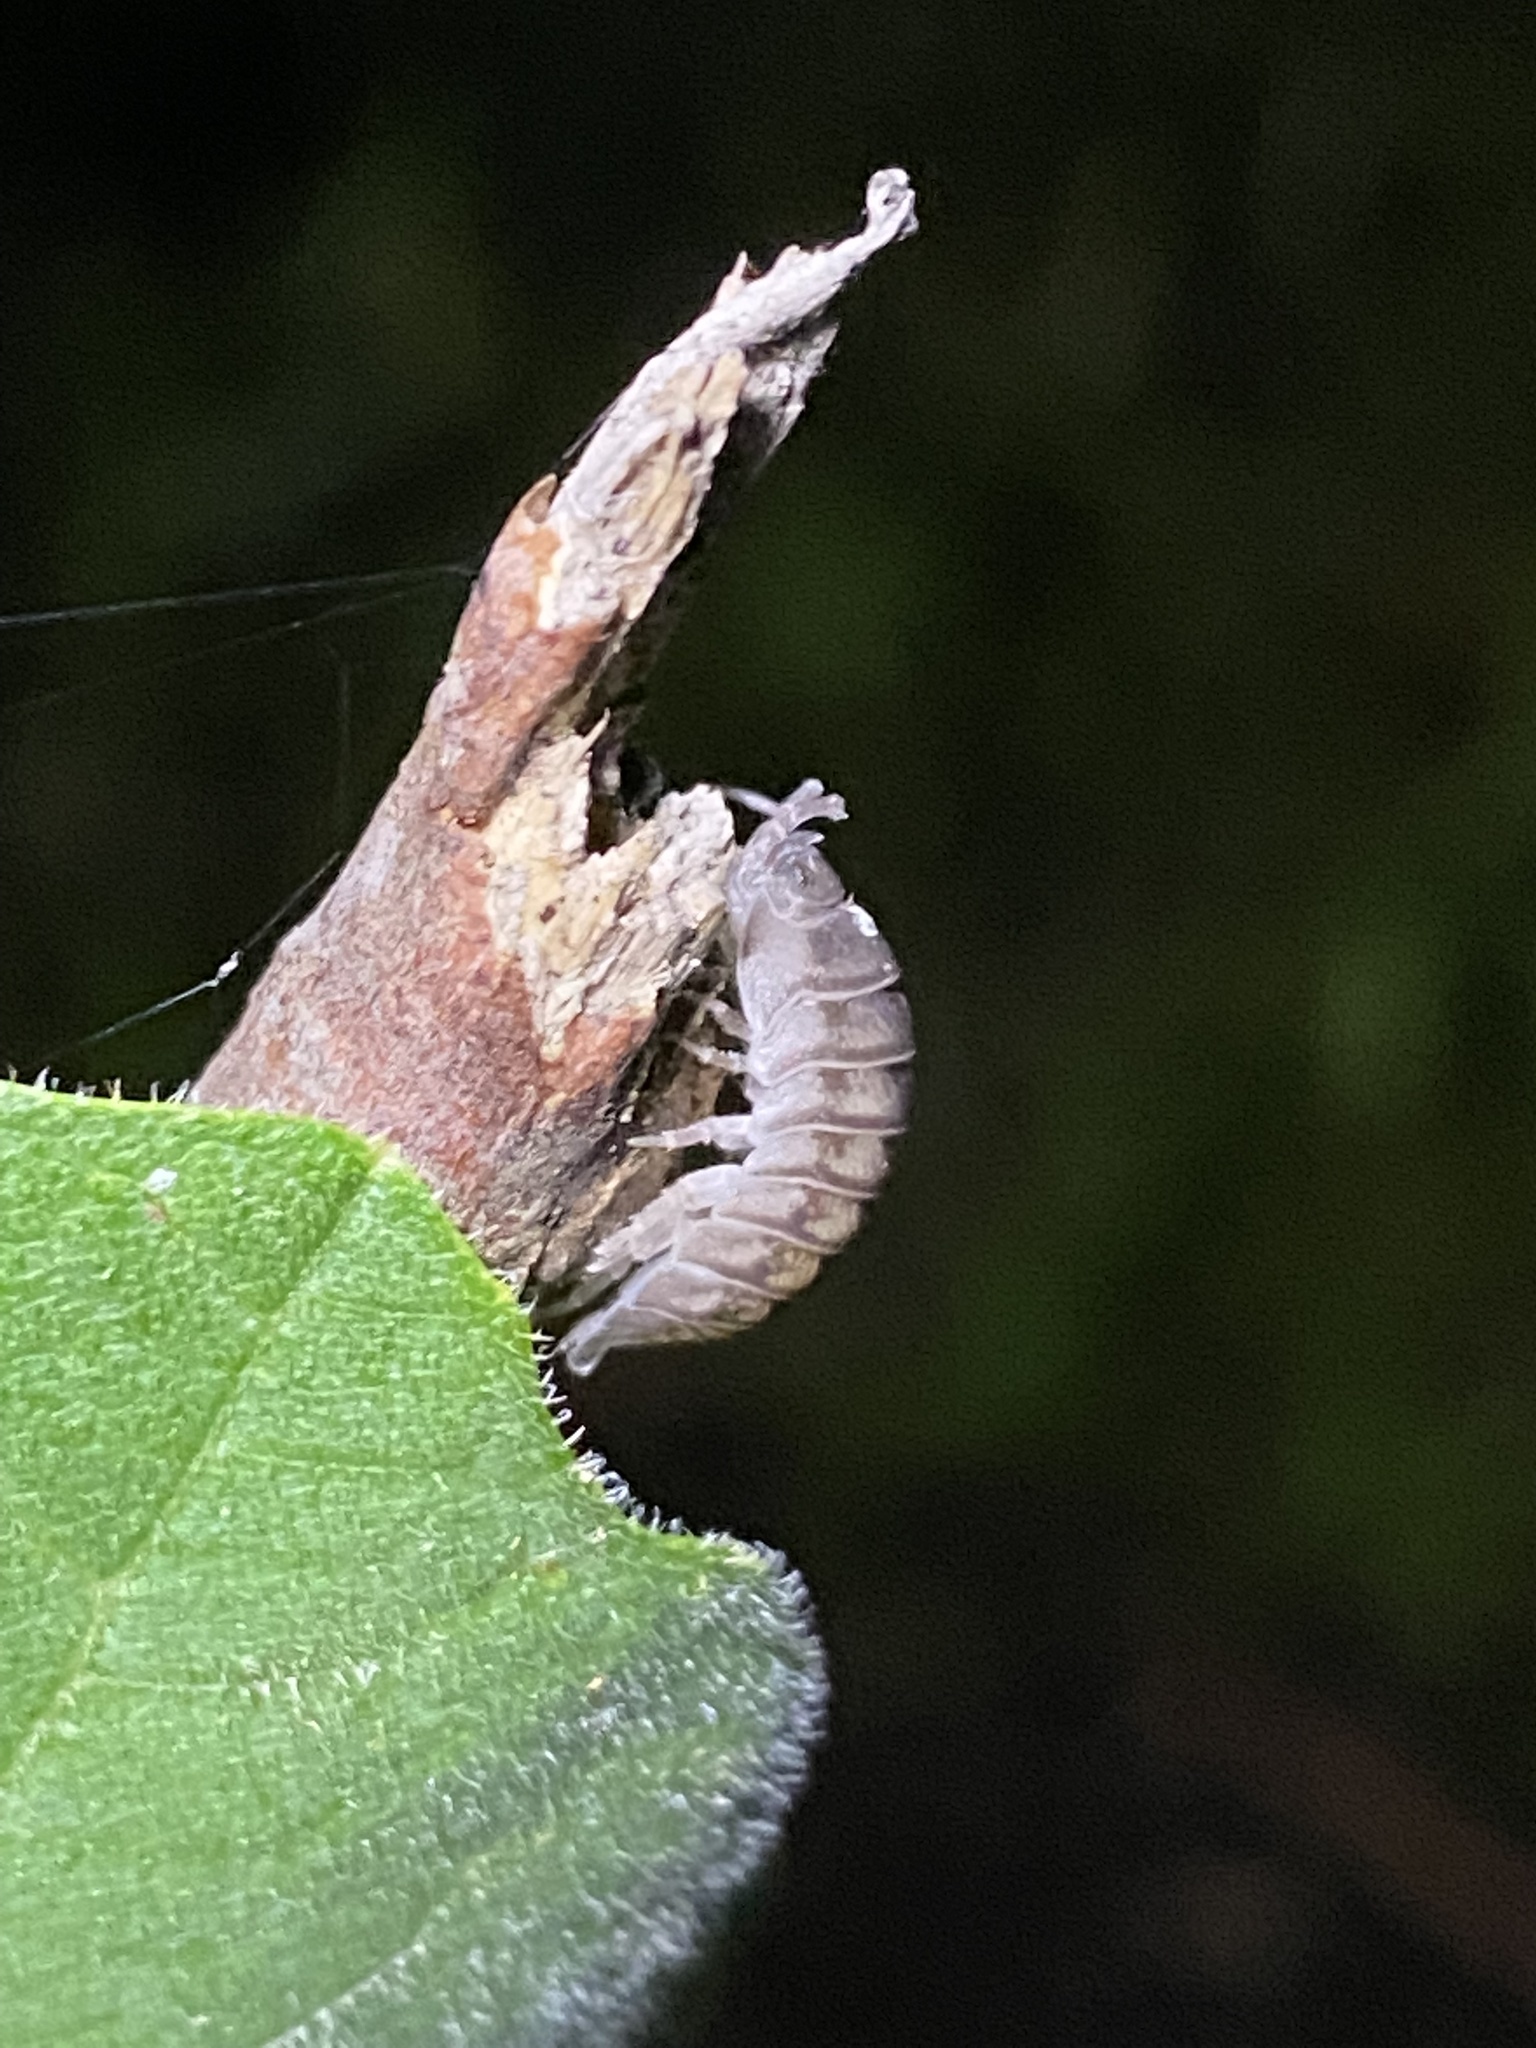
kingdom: Animalia
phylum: Arthropoda
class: Malacostraca
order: Isopoda
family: Armadillidiidae
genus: Armadillidium
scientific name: Armadillidium nasatum
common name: Isopod
